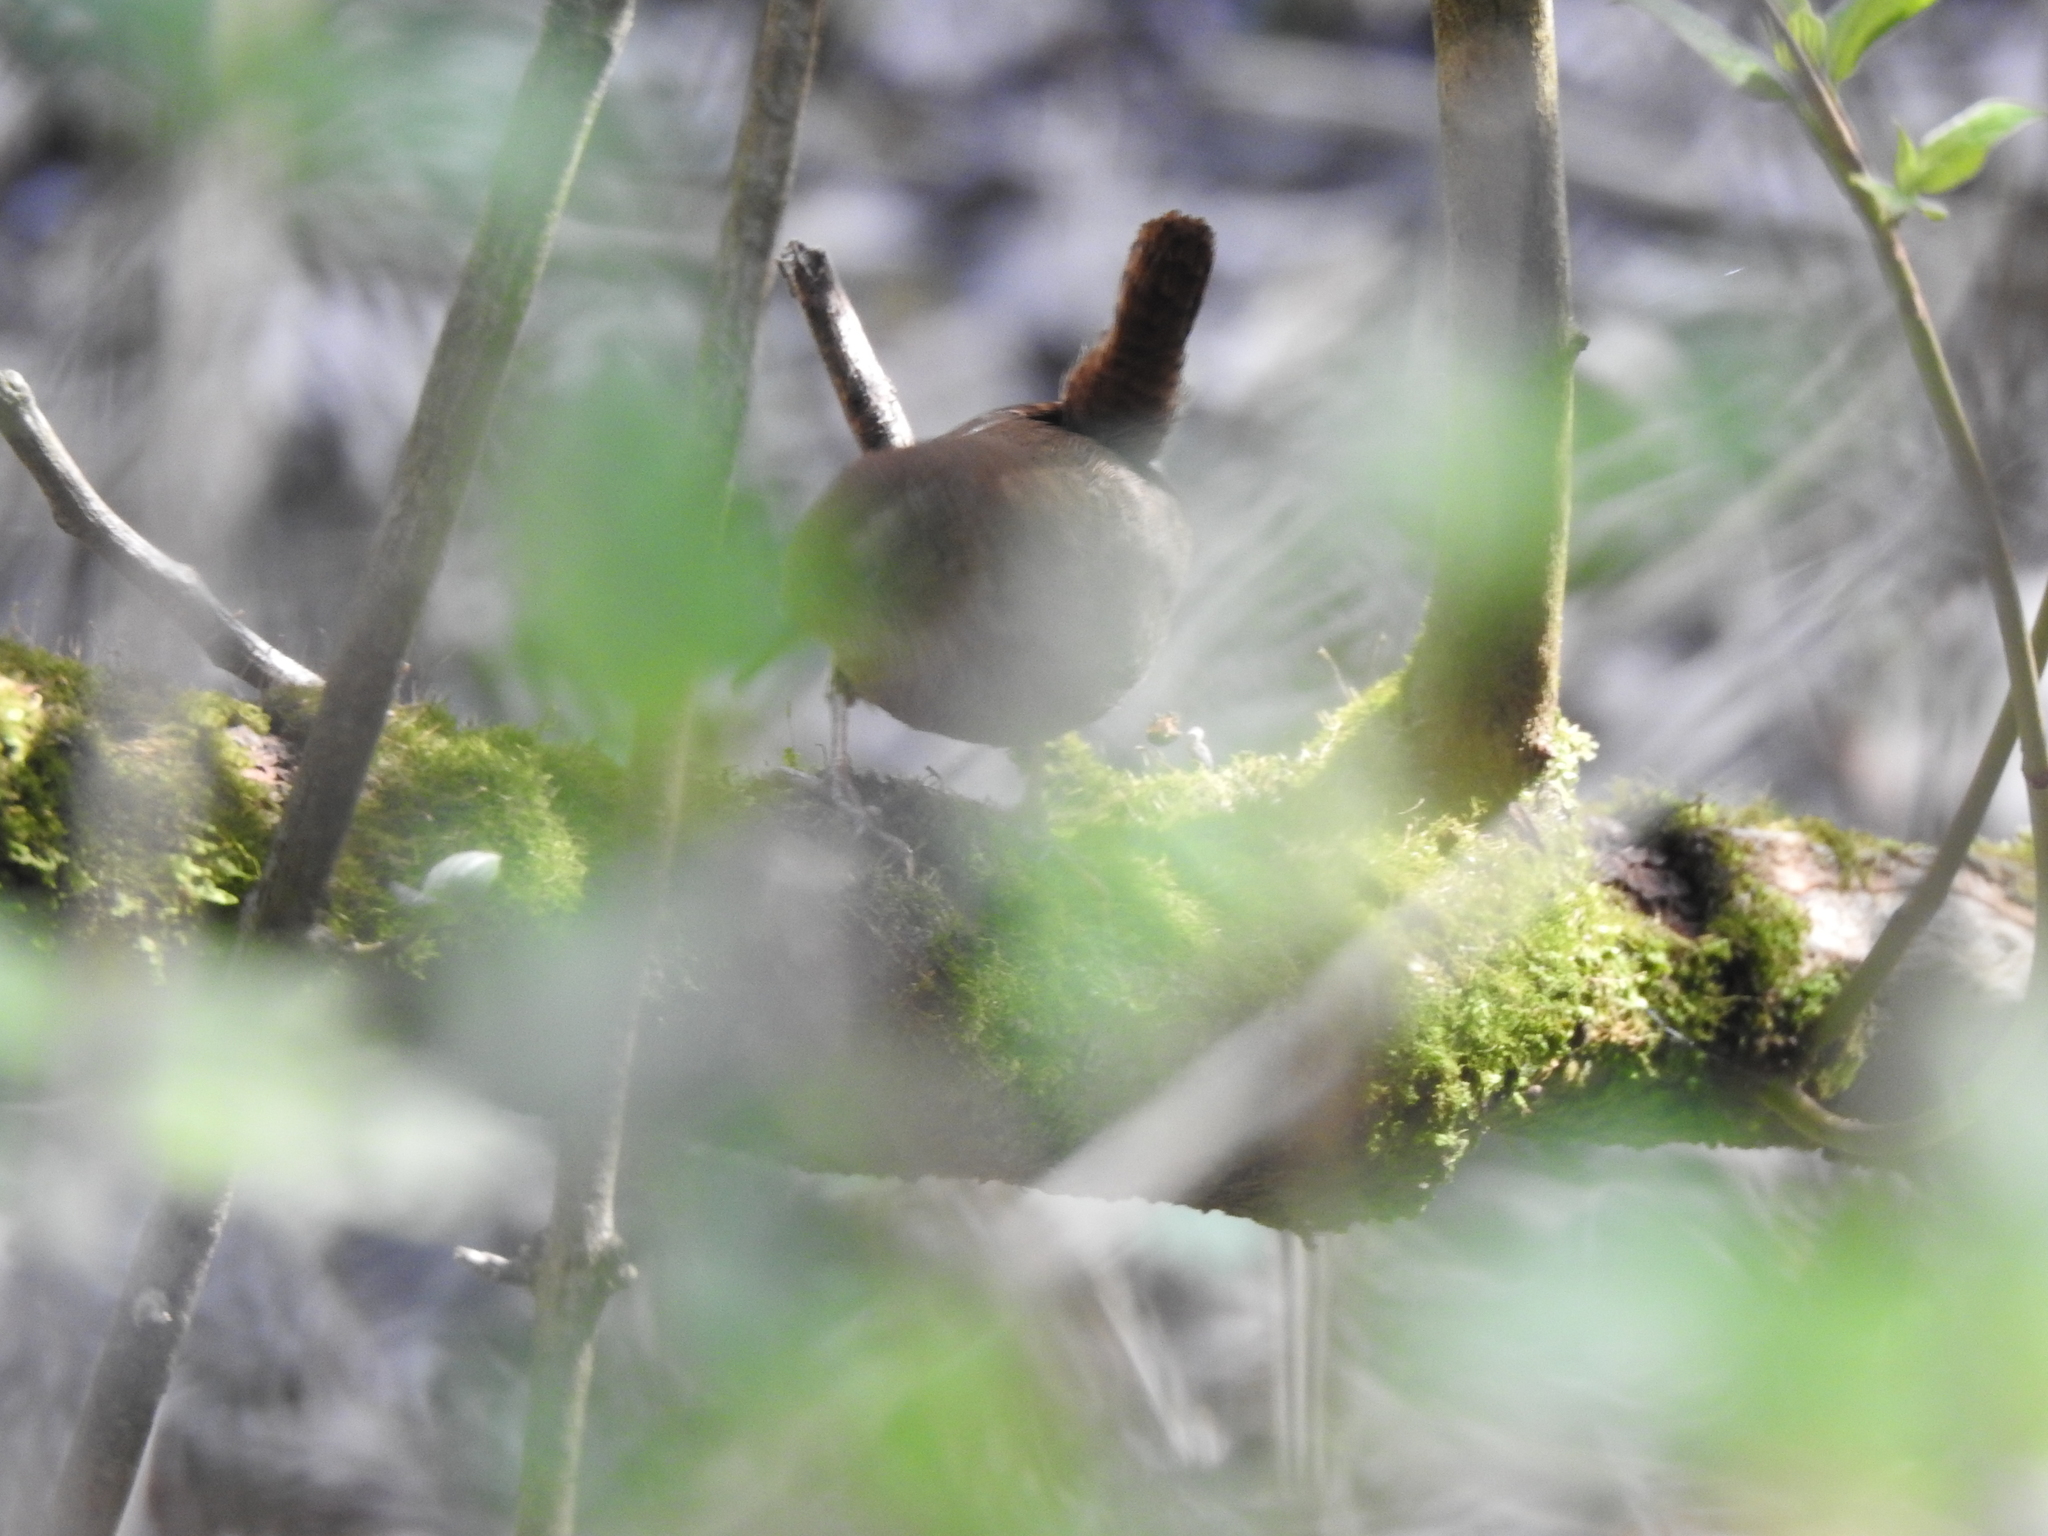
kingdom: Animalia
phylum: Chordata
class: Aves
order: Passeriformes
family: Troglodytidae
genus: Troglodytes
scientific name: Troglodytes troglodytes
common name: Eurasian wren
